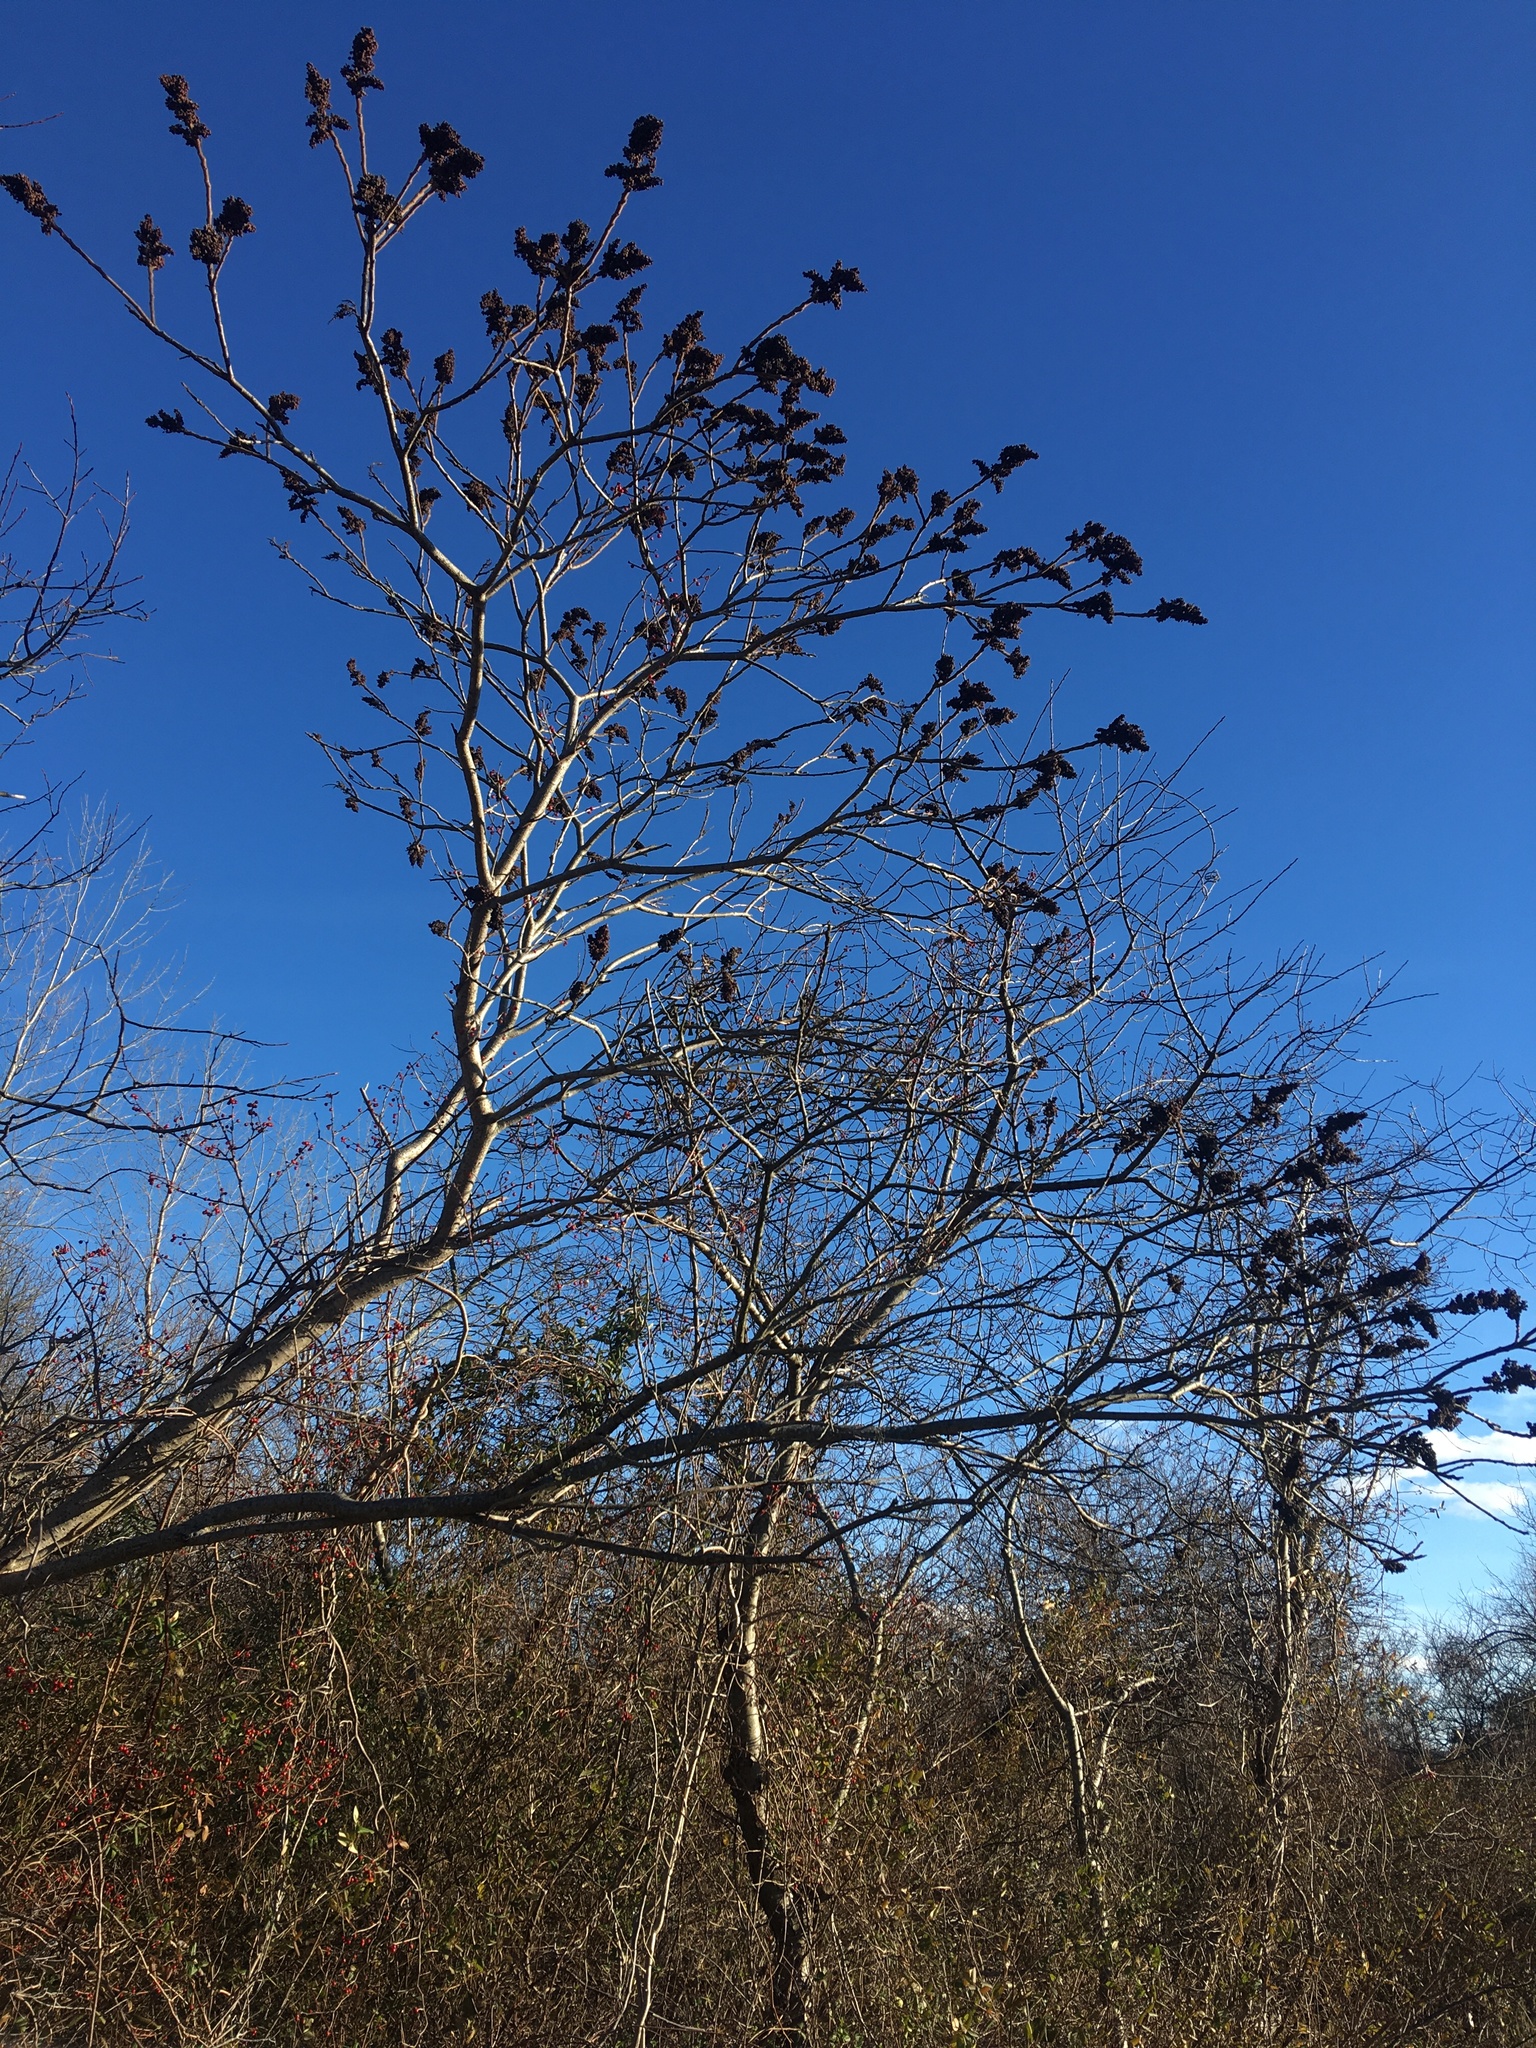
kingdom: Plantae
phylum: Tracheophyta
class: Magnoliopsida
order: Sapindales
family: Anacardiaceae
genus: Rhus
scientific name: Rhus copallina
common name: Shining sumac
